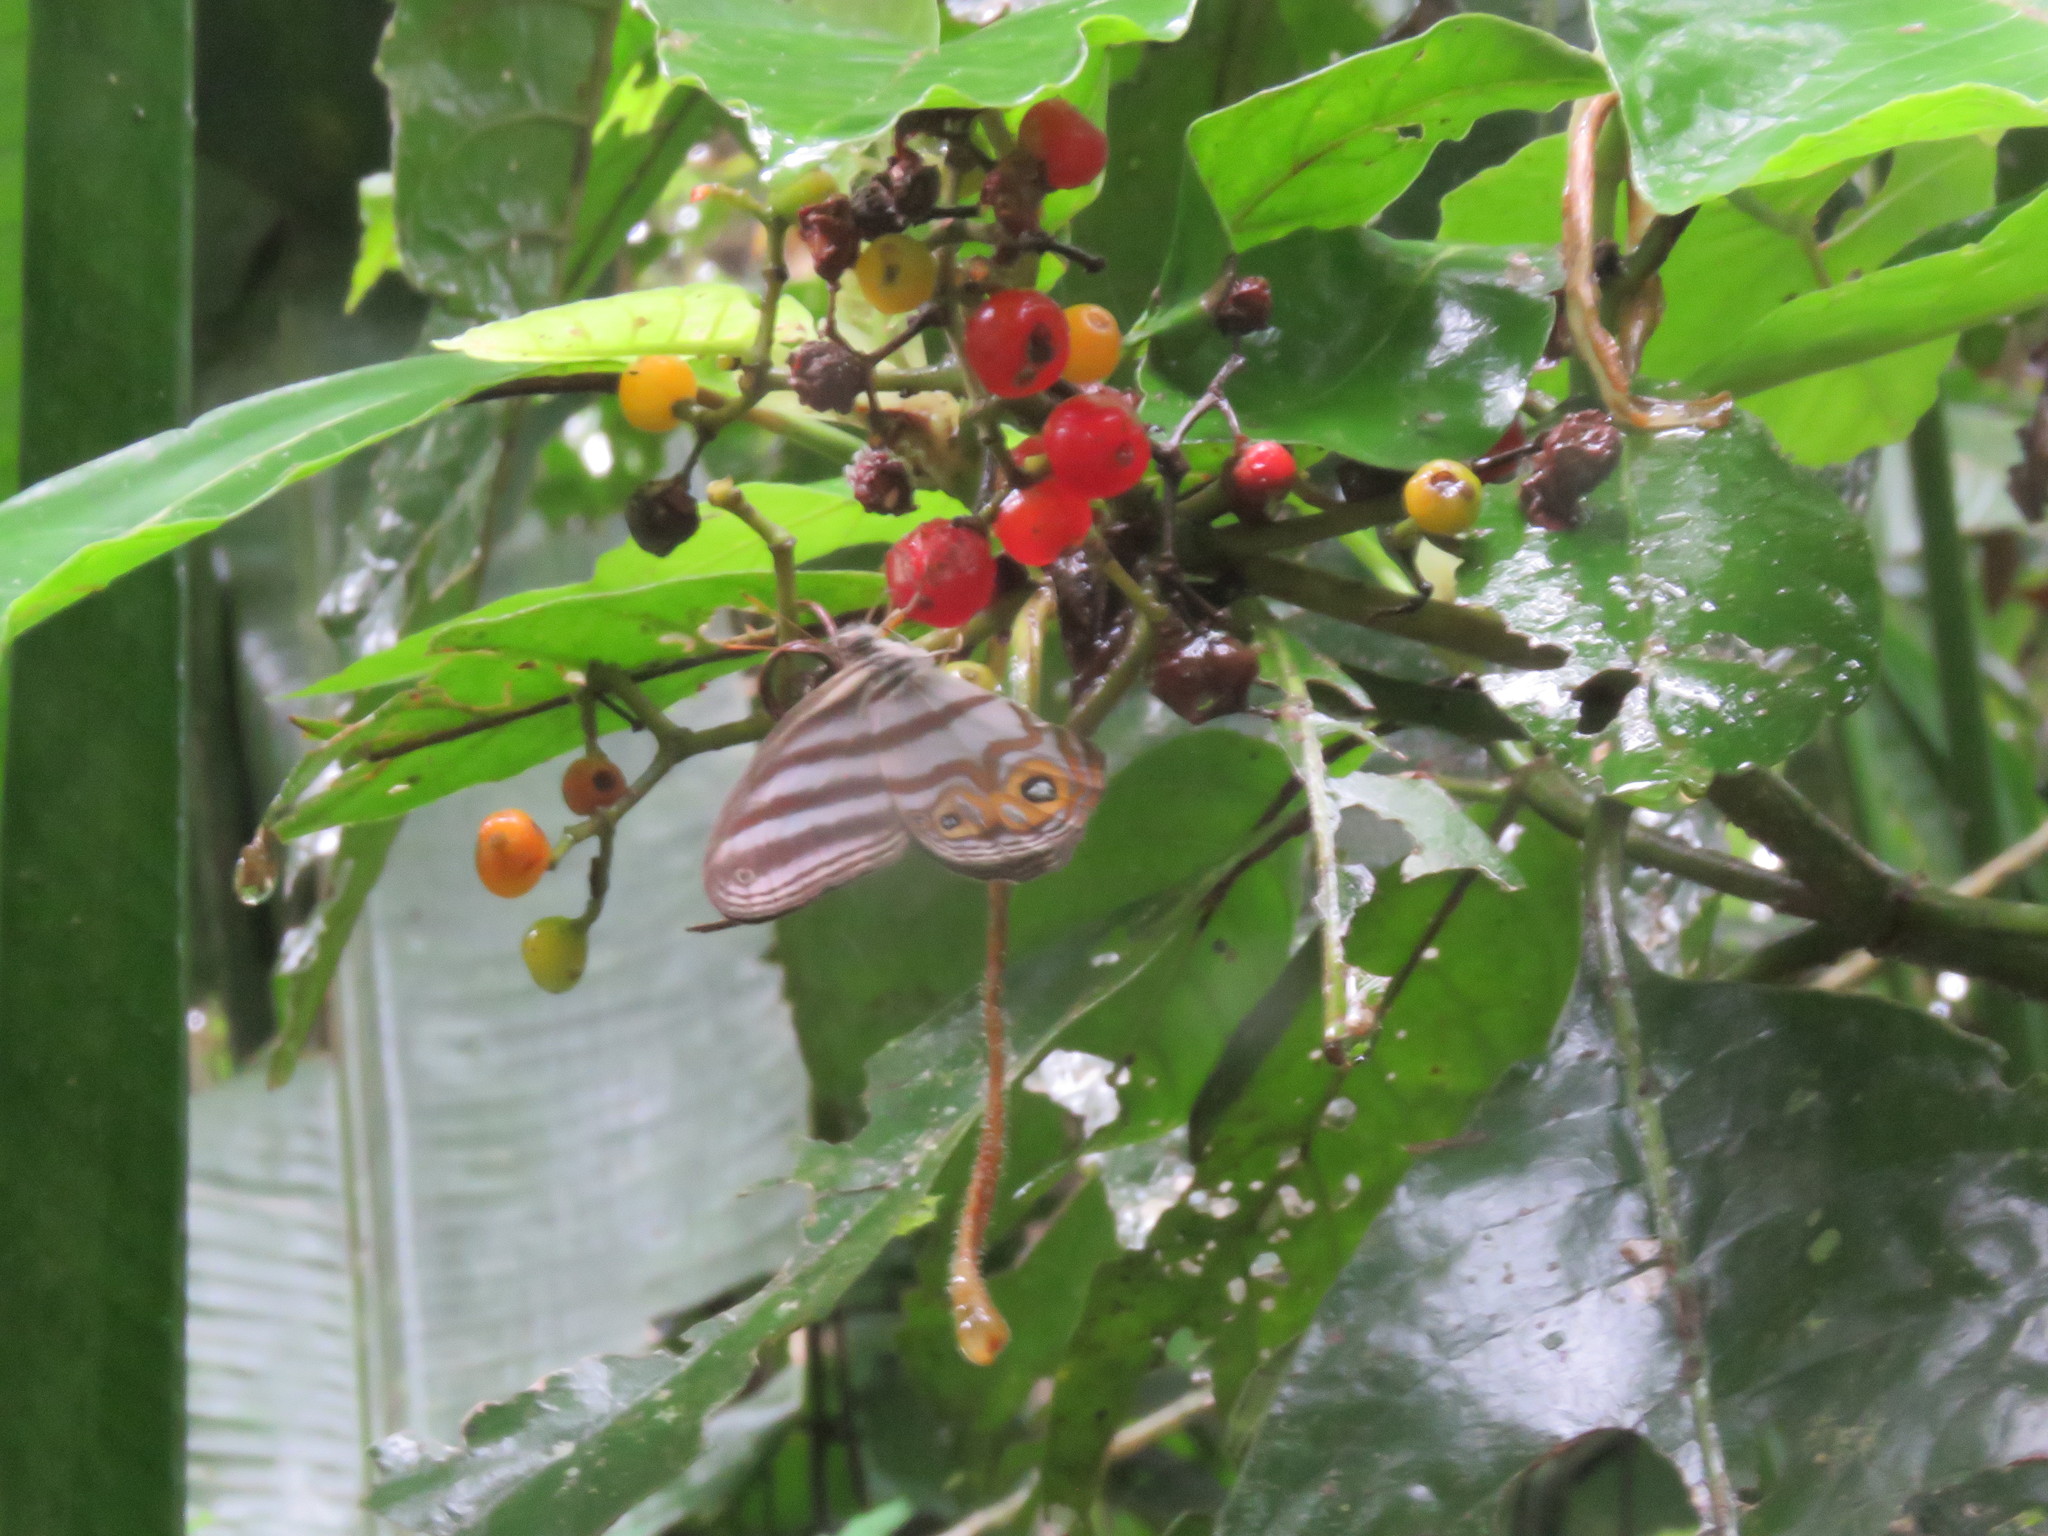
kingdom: Animalia
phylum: Arthropoda
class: Insecta
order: Lepidoptera
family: Nymphalidae
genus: Pseudeuptychia
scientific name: Pseudeuptychia
